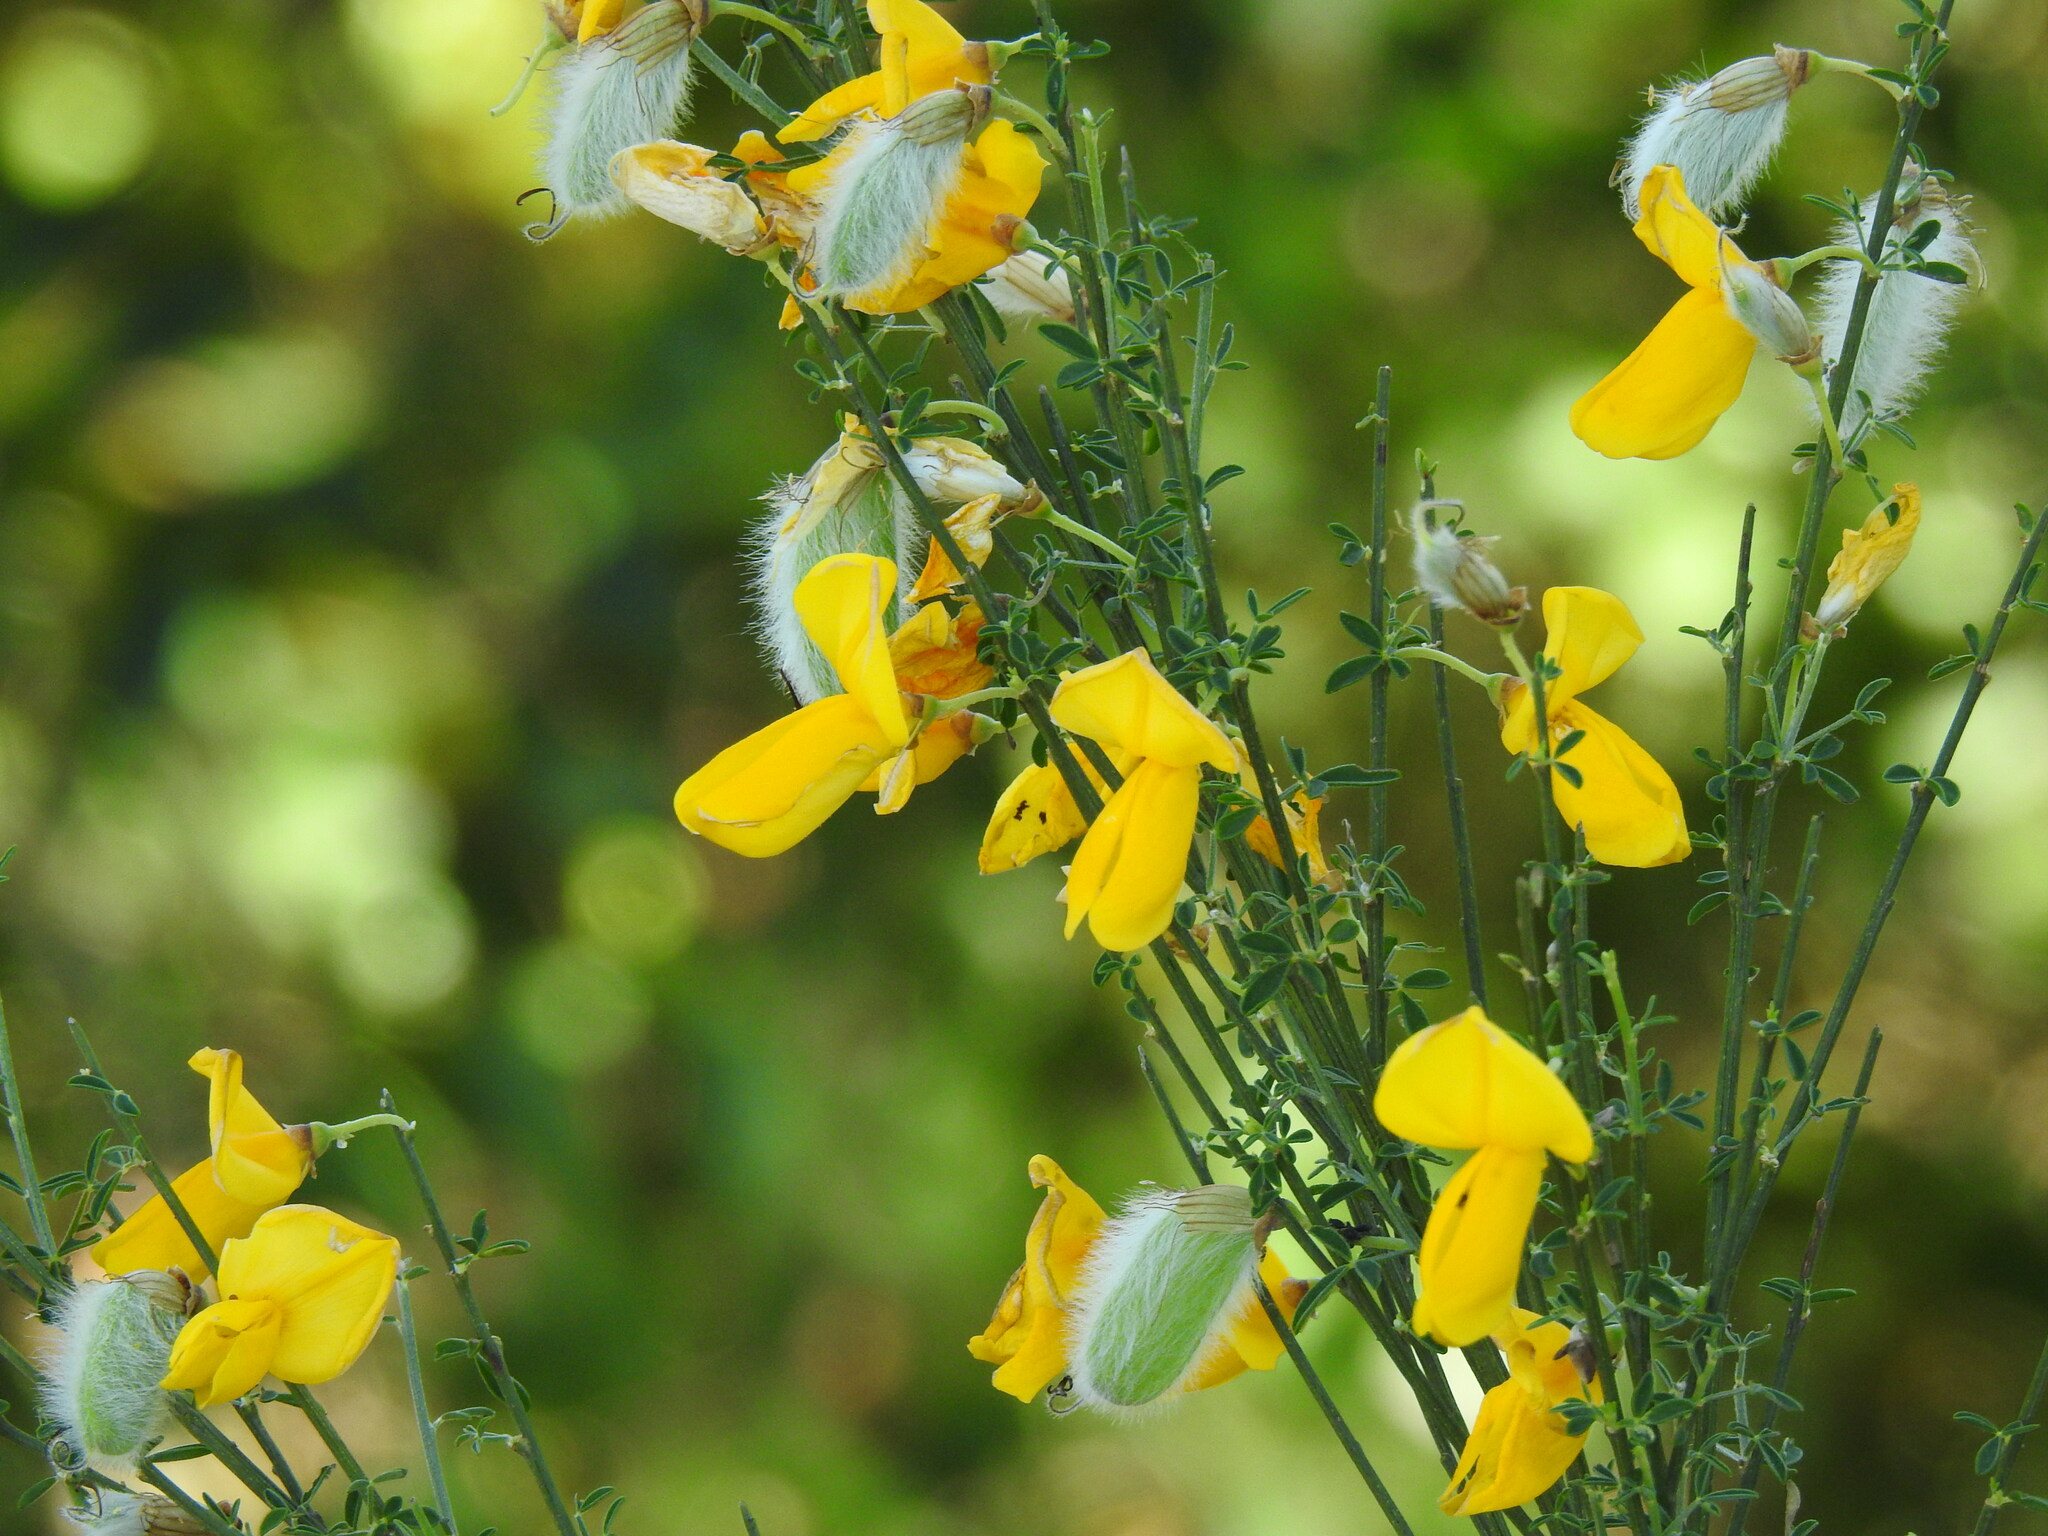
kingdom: Plantae
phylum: Tracheophyta
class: Magnoliopsida
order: Fabales
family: Fabaceae
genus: Cytisus
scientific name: Cytisus striatus
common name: Hairy-fruited broom
